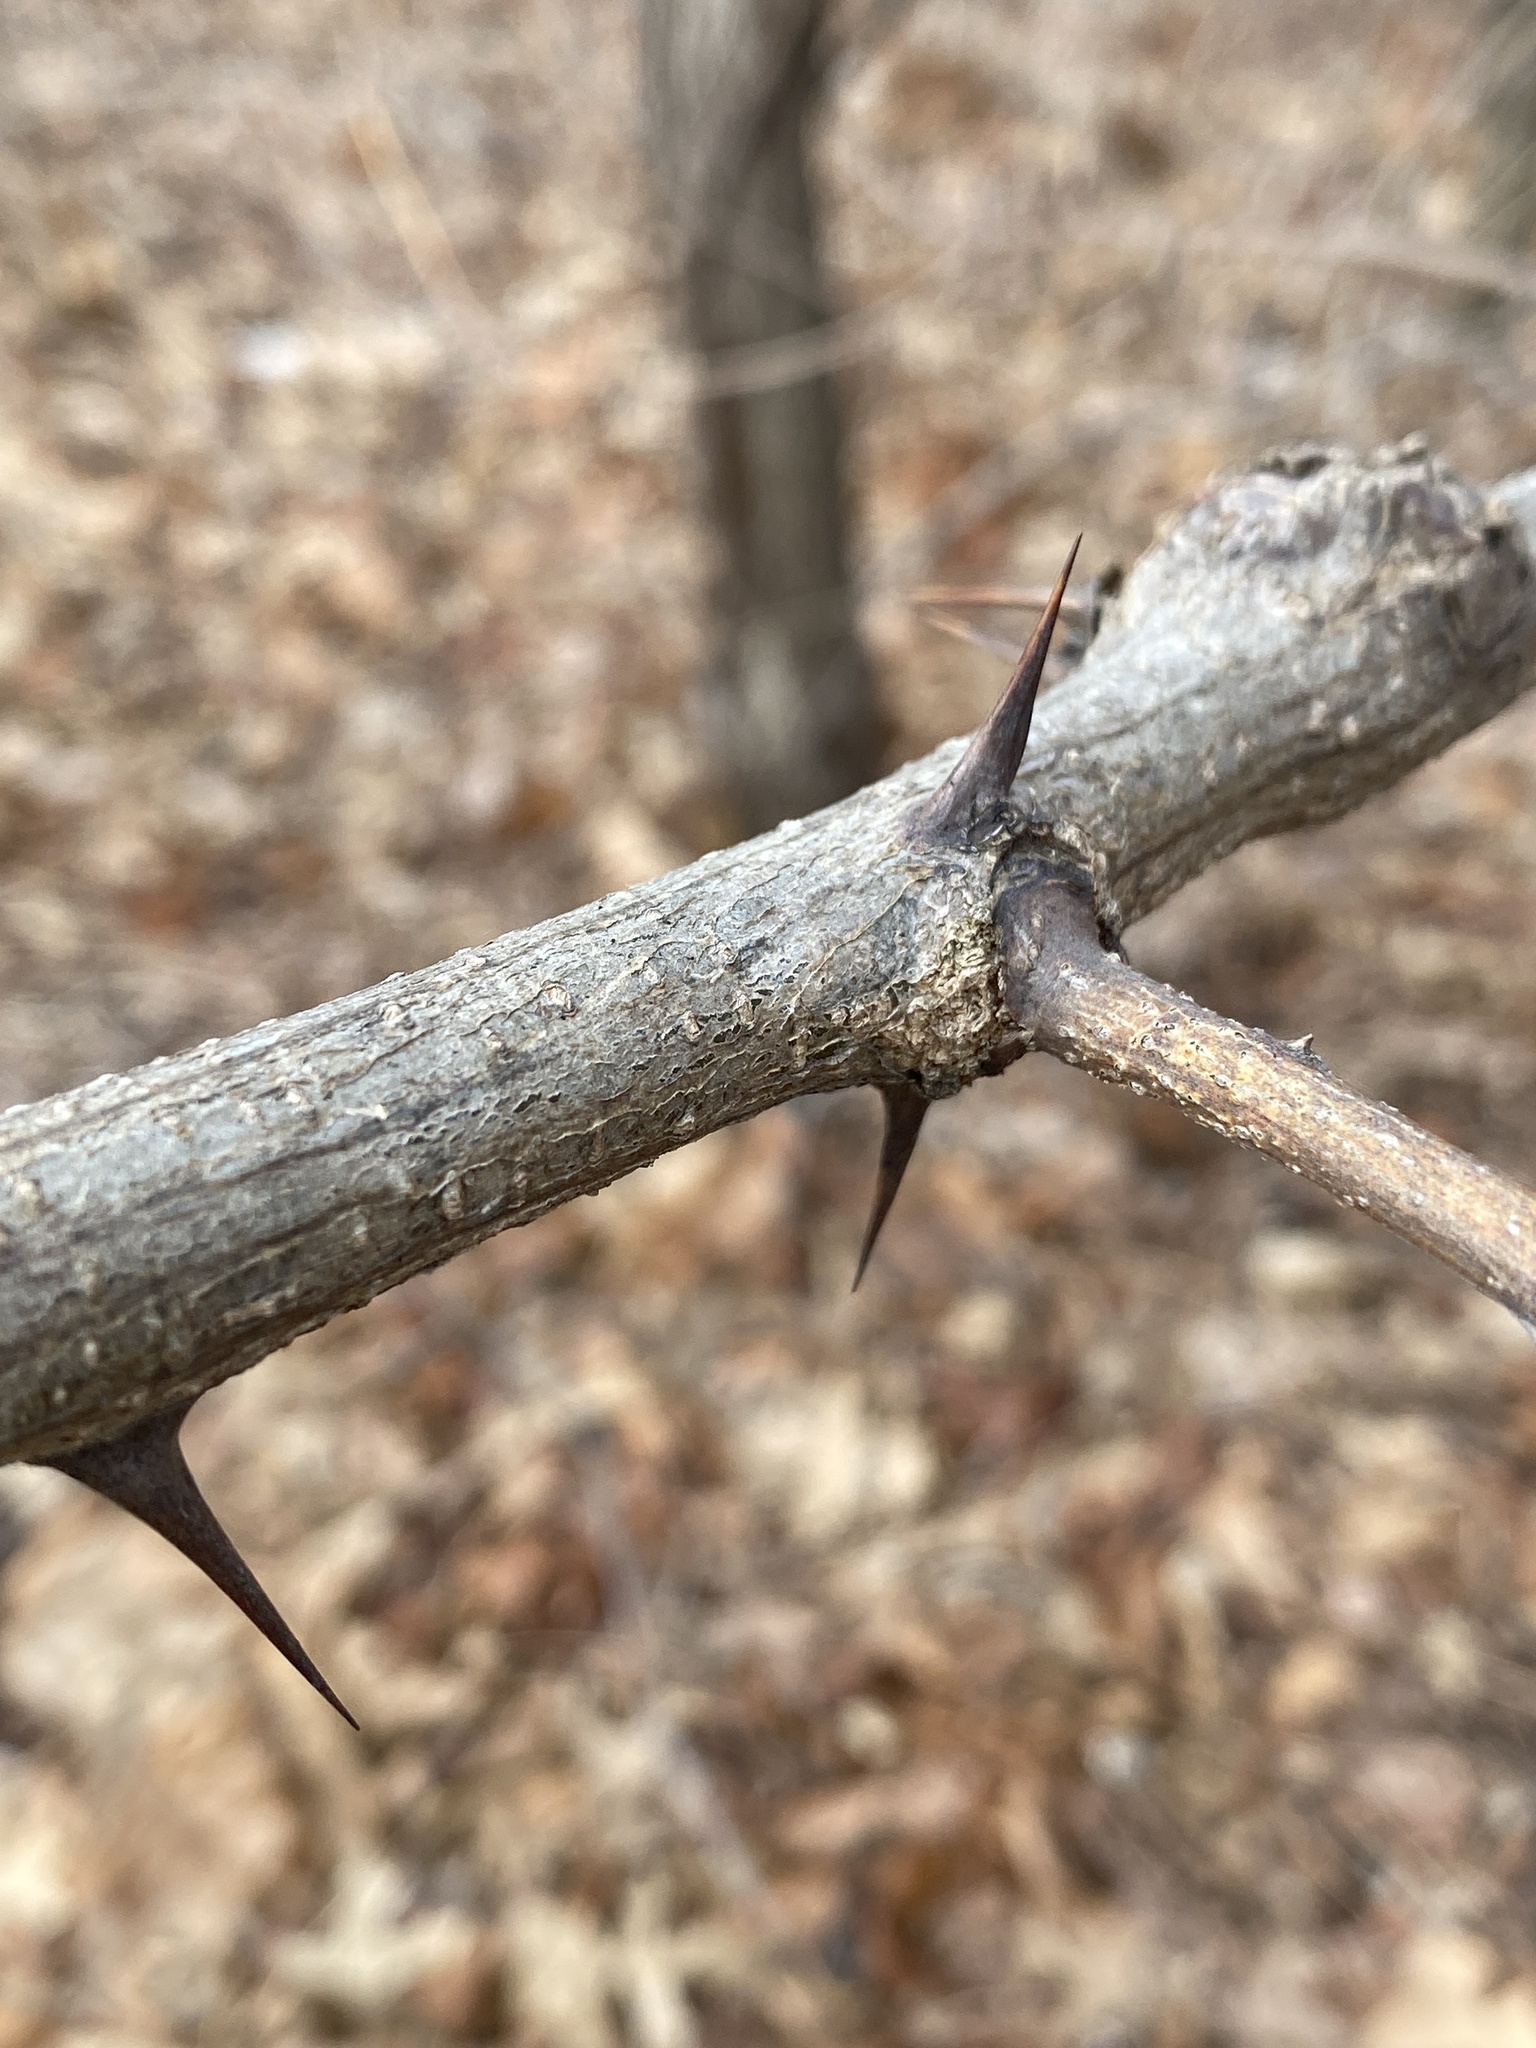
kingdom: Plantae
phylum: Tracheophyta
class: Magnoliopsida
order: Fabales
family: Fabaceae
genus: Robinia
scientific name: Robinia pseudoacacia
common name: Black locust
